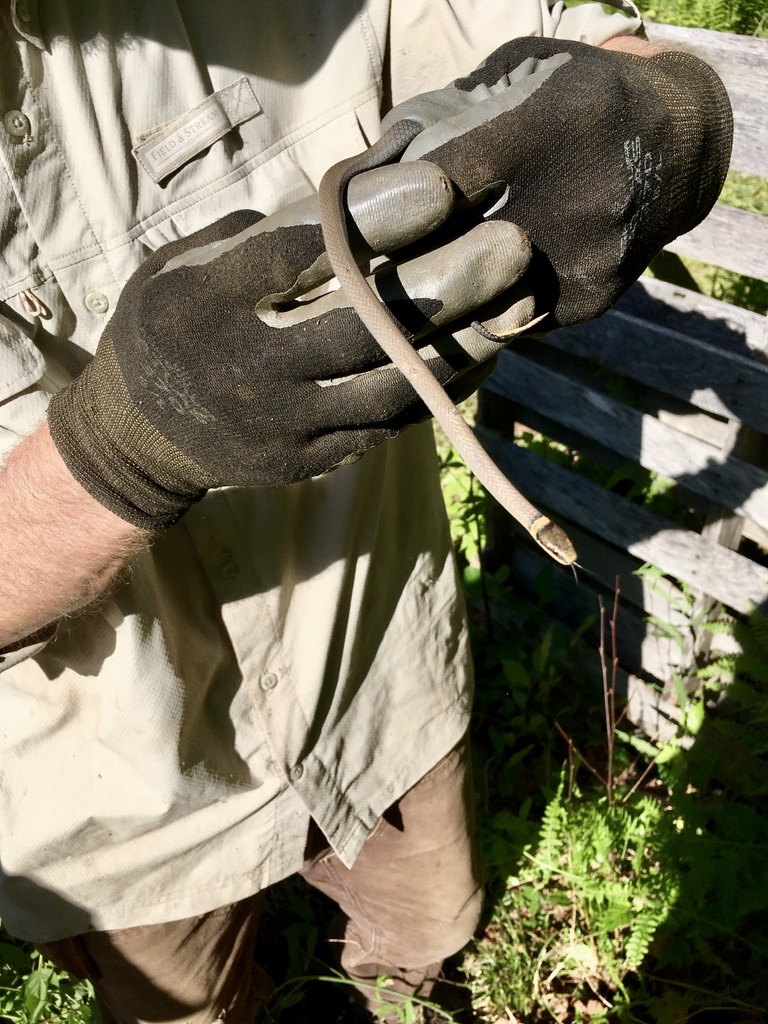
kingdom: Animalia
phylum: Chordata
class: Squamata
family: Colubridae
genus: Diadophis
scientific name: Diadophis punctatus
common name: Ringneck snake
